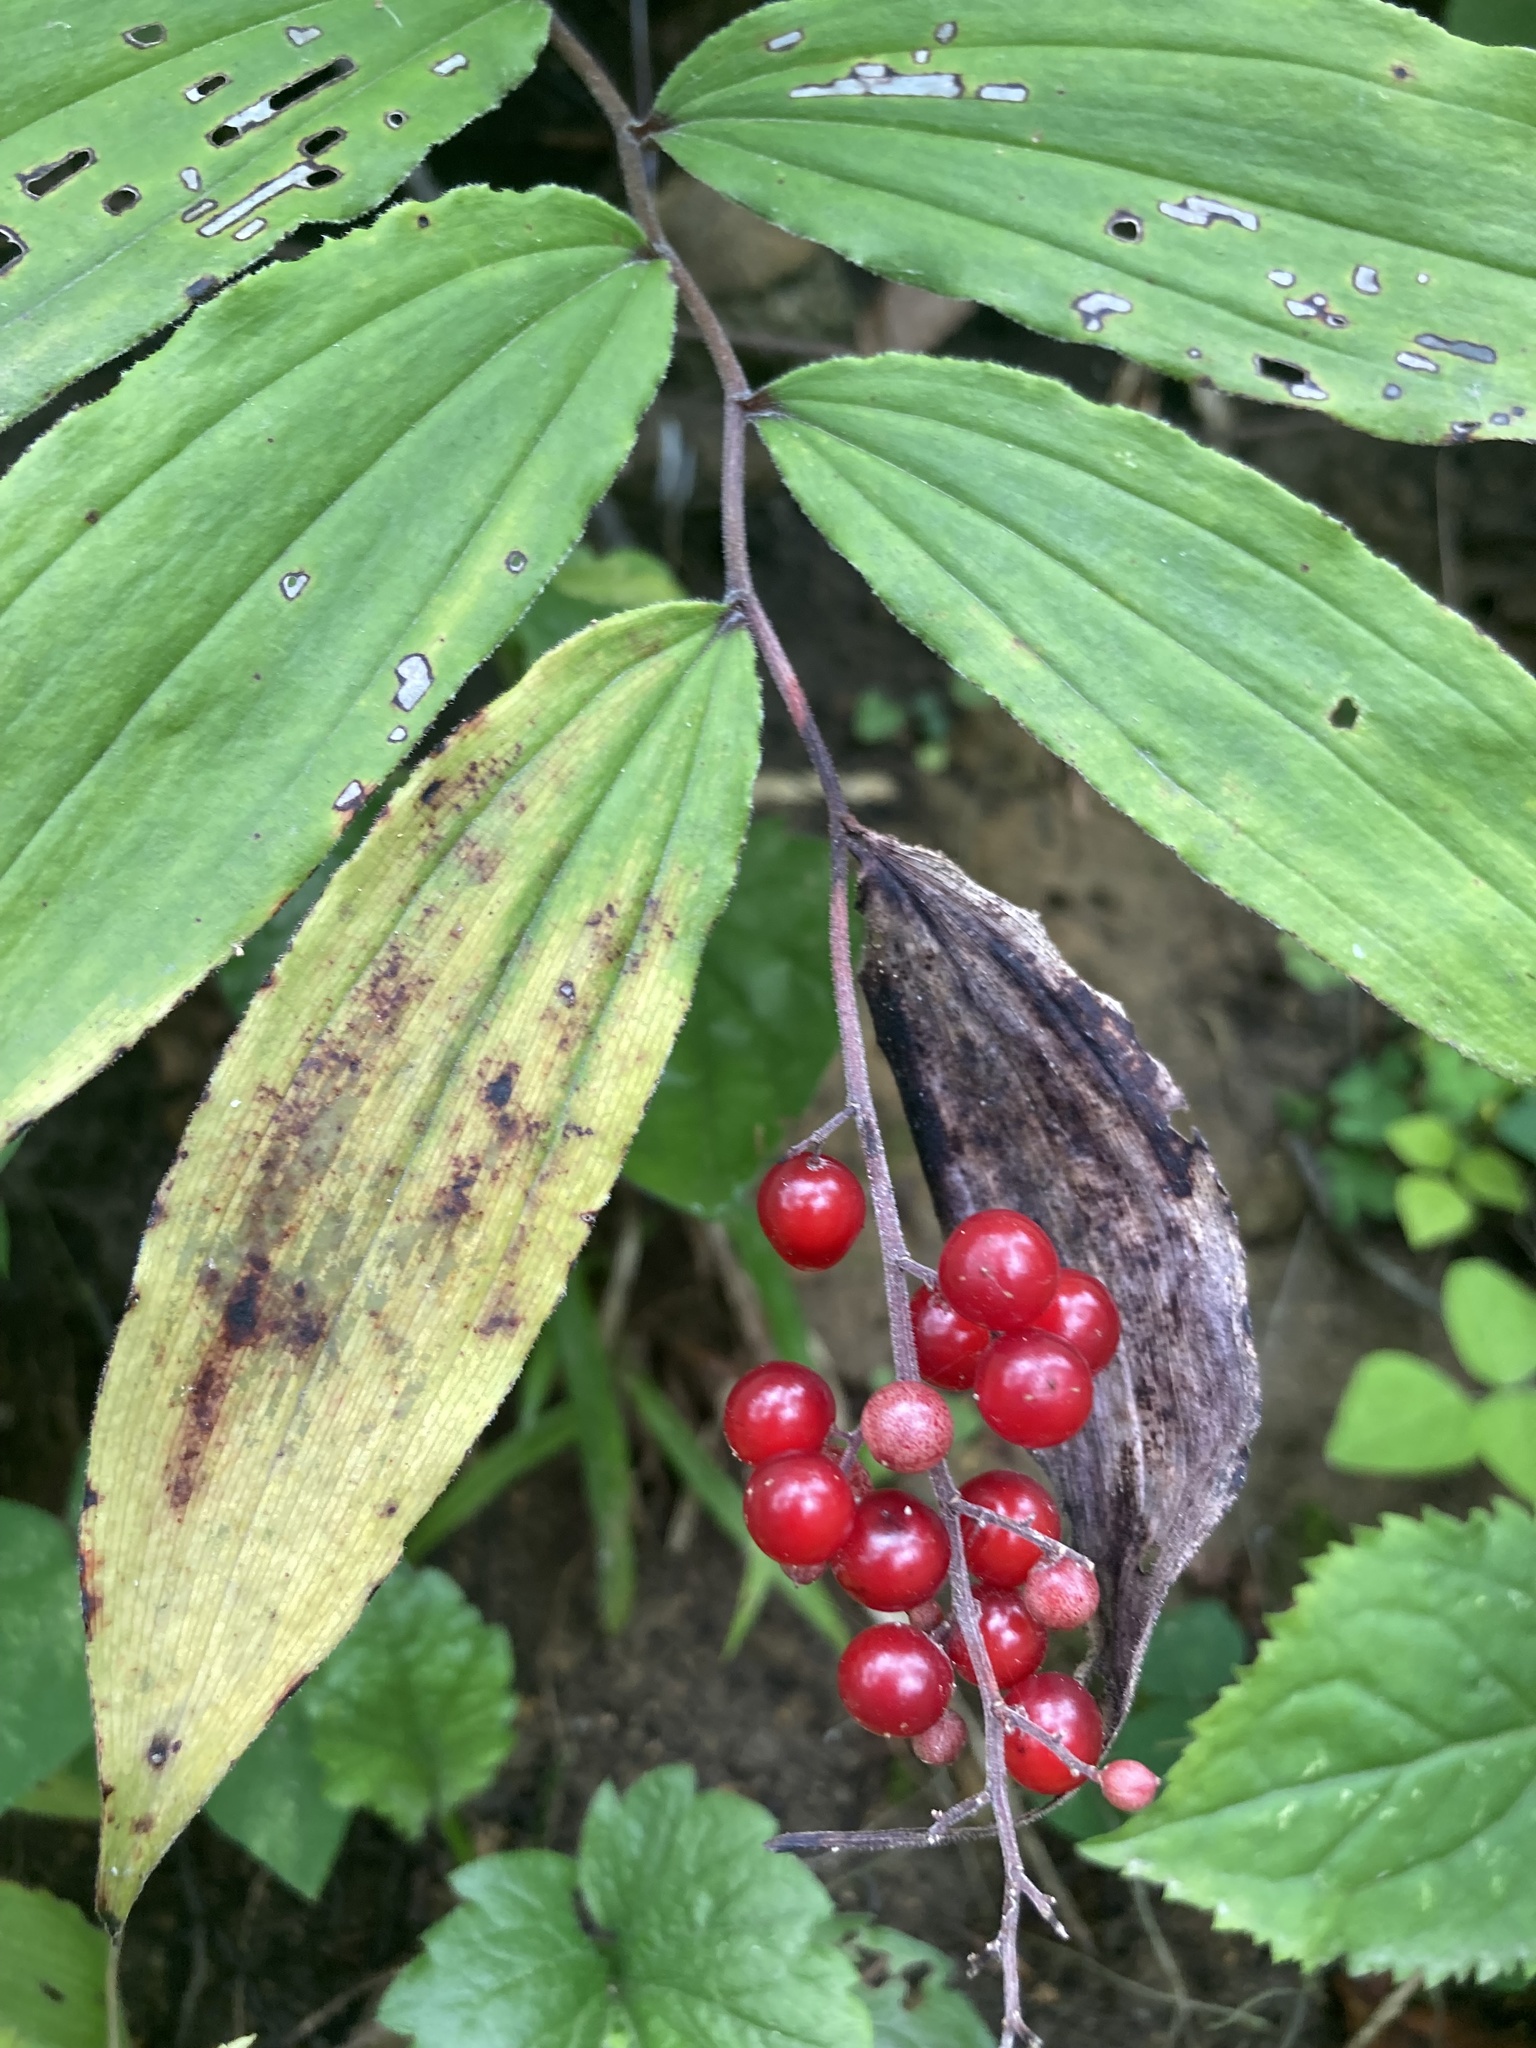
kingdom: Plantae
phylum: Tracheophyta
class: Liliopsida
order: Asparagales
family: Asparagaceae
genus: Maianthemum
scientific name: Maianthemum racemosum
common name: False spikenard
